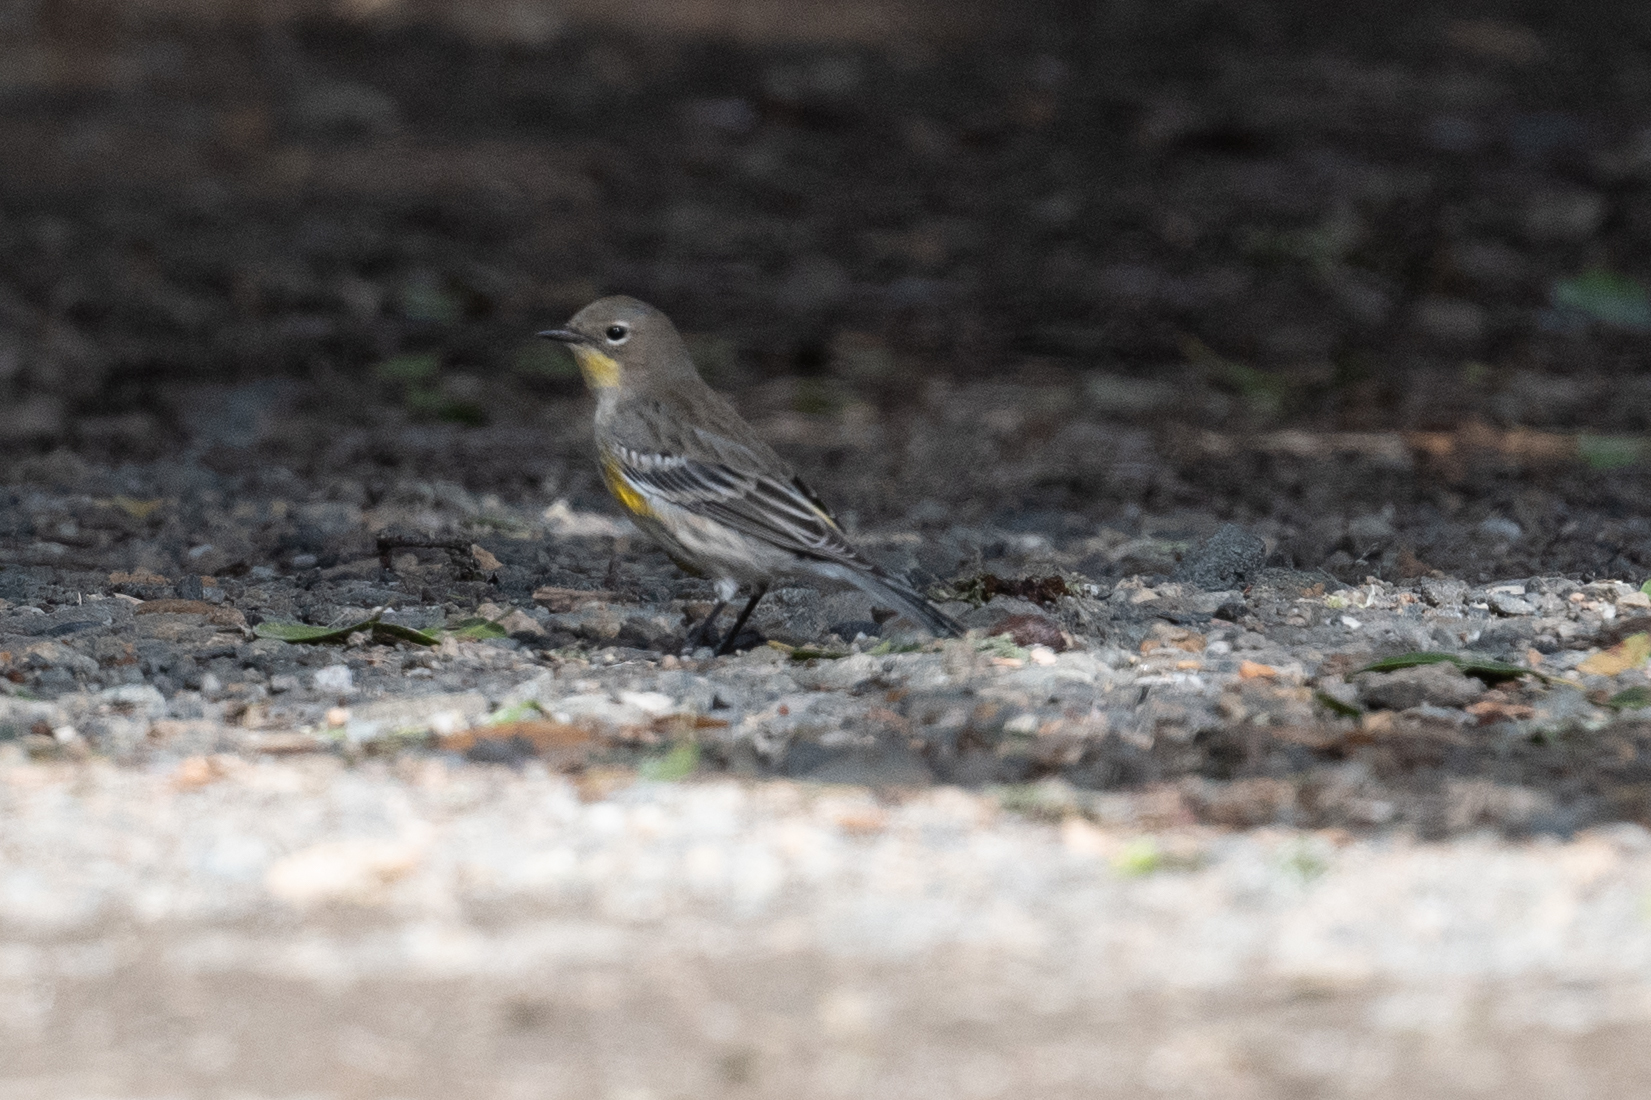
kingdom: Animalia
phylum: Chordata
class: Aves
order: Passeriformes
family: Parulidae
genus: Setophaga
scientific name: Setophaga coronata
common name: Myrtle warbler
